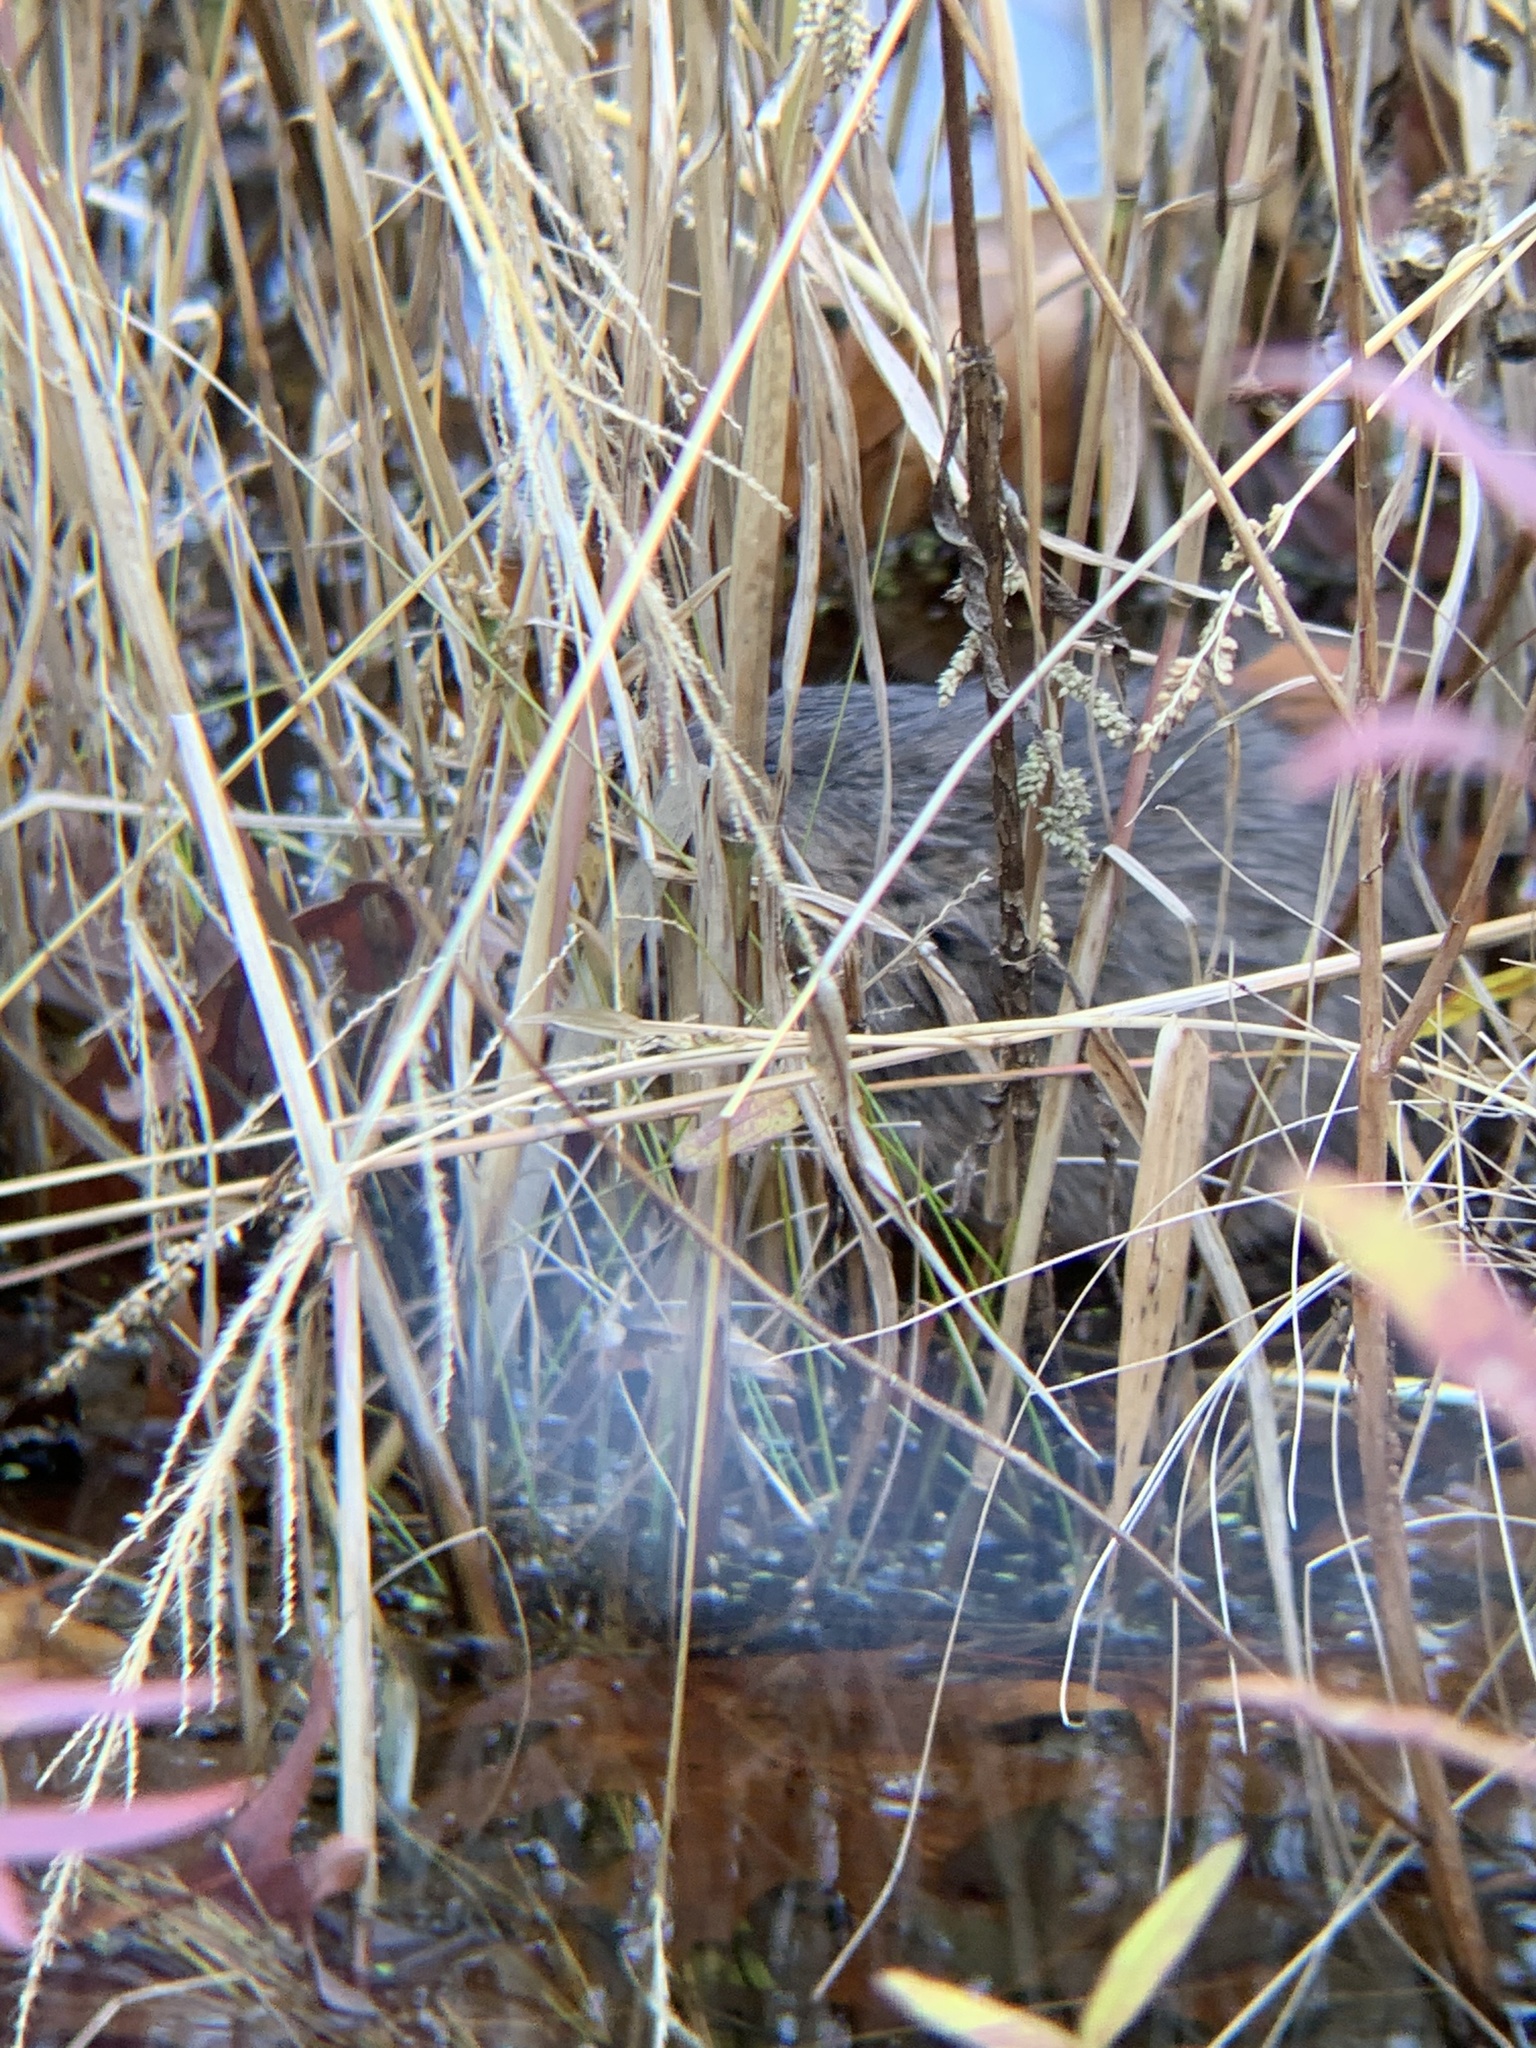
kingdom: Animalia
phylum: Chordata
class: Mammalia
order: Rodentia
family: Cricetidae
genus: Ondatra
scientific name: Ondatra zibethicus
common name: Muskrat
